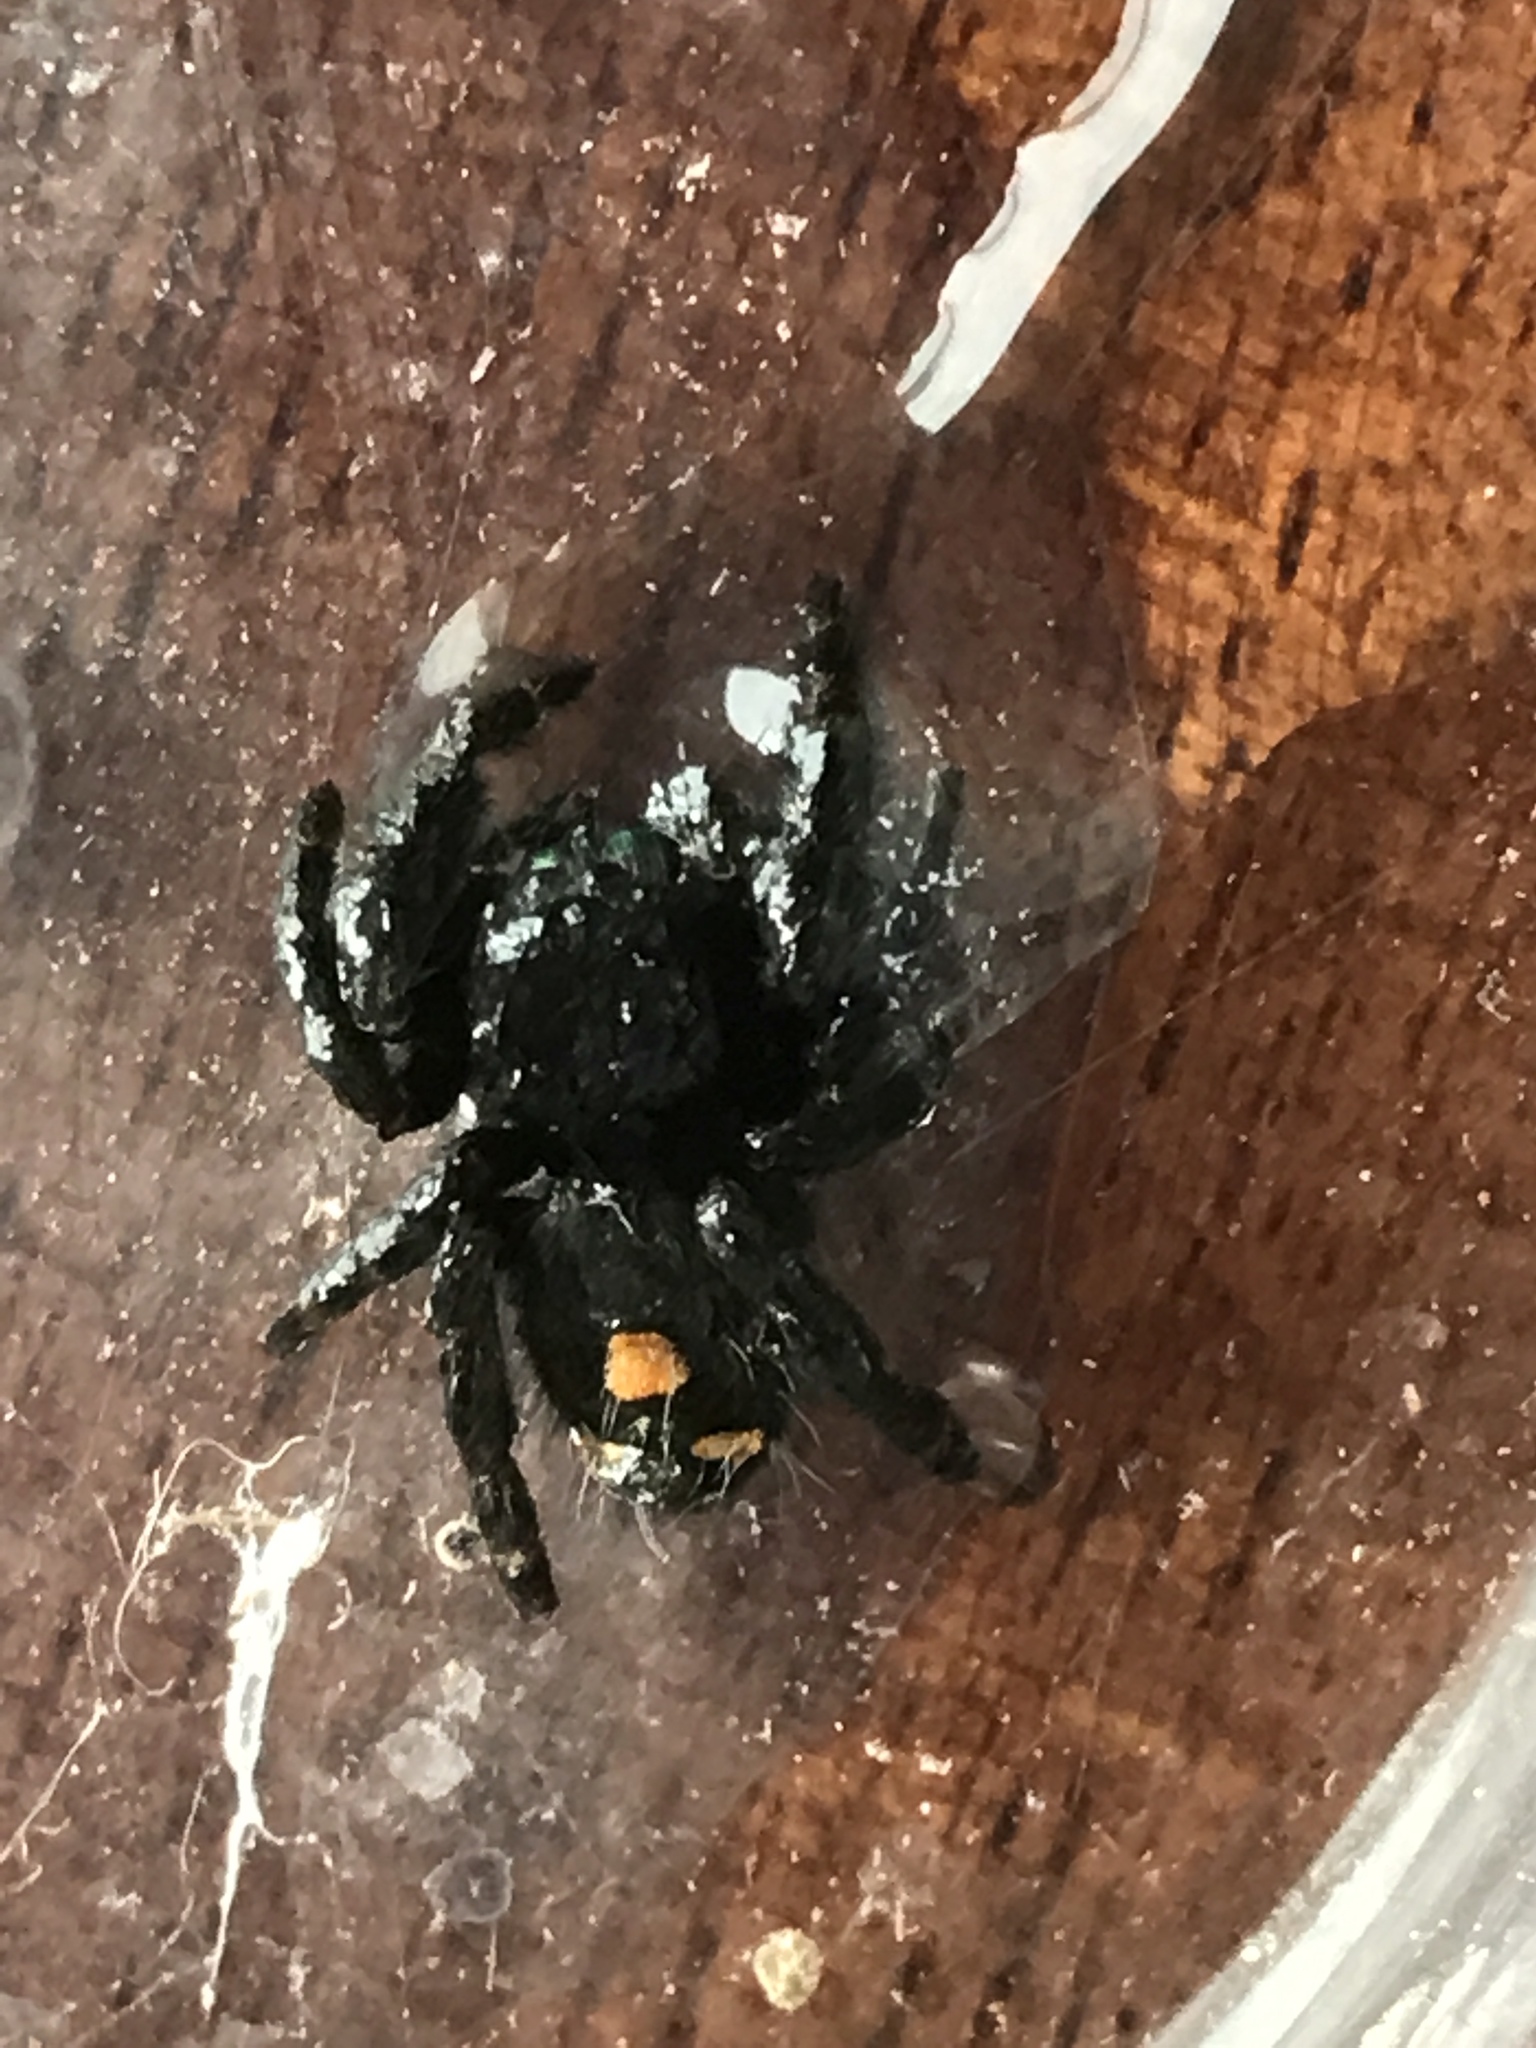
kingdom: Animalia
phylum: Arthropoda
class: Arachnida
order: Araneae
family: Salticidae
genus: Phidippus
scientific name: Phidippus audax
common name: Bold jumper
